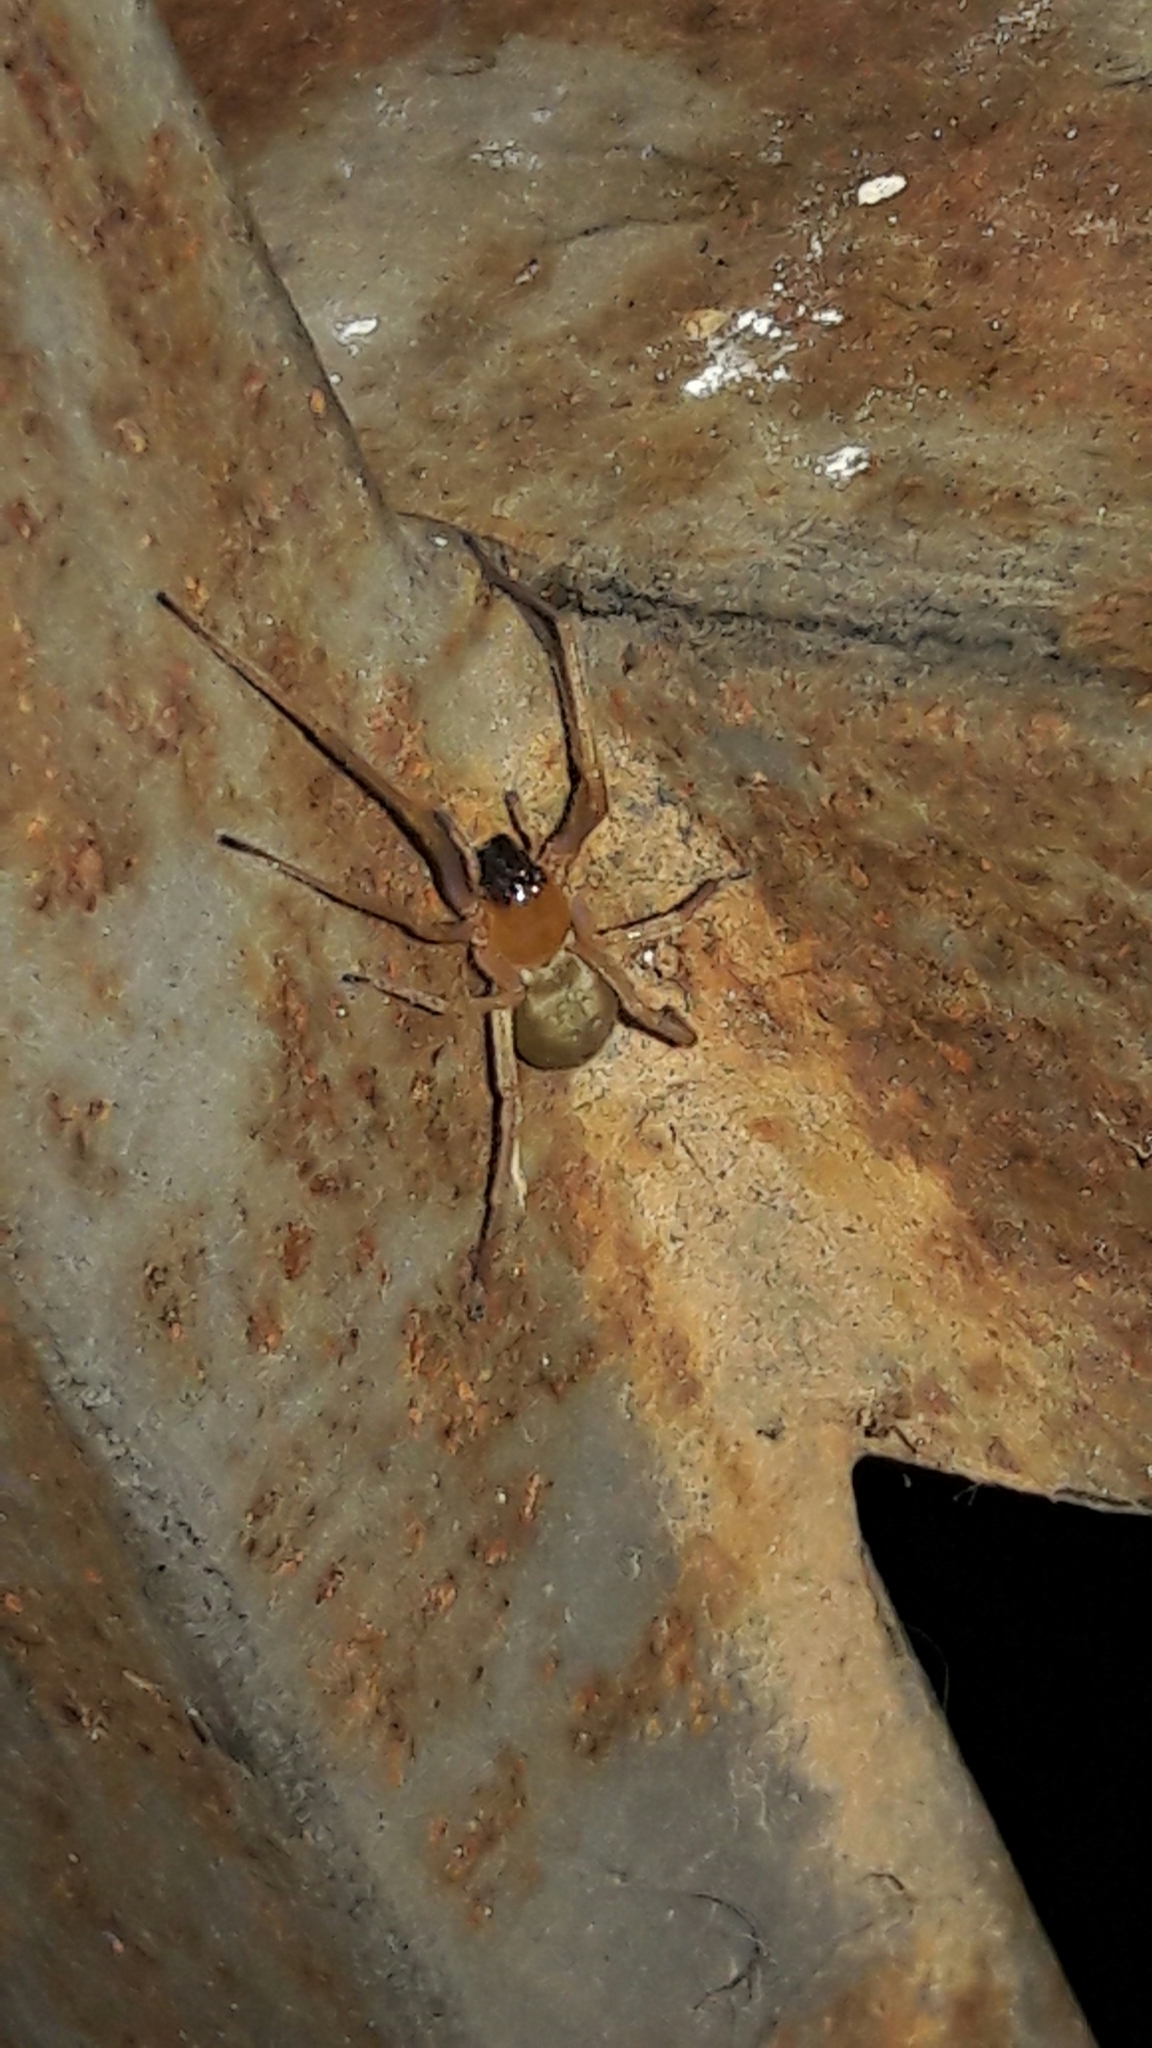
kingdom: Animalia
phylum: Arthropoda
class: Arachnida
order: Araneae
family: Cheiracanthiidae
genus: Cheiracanthium
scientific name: Cheiracanthium inclusum
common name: Long-legged sac spiders
